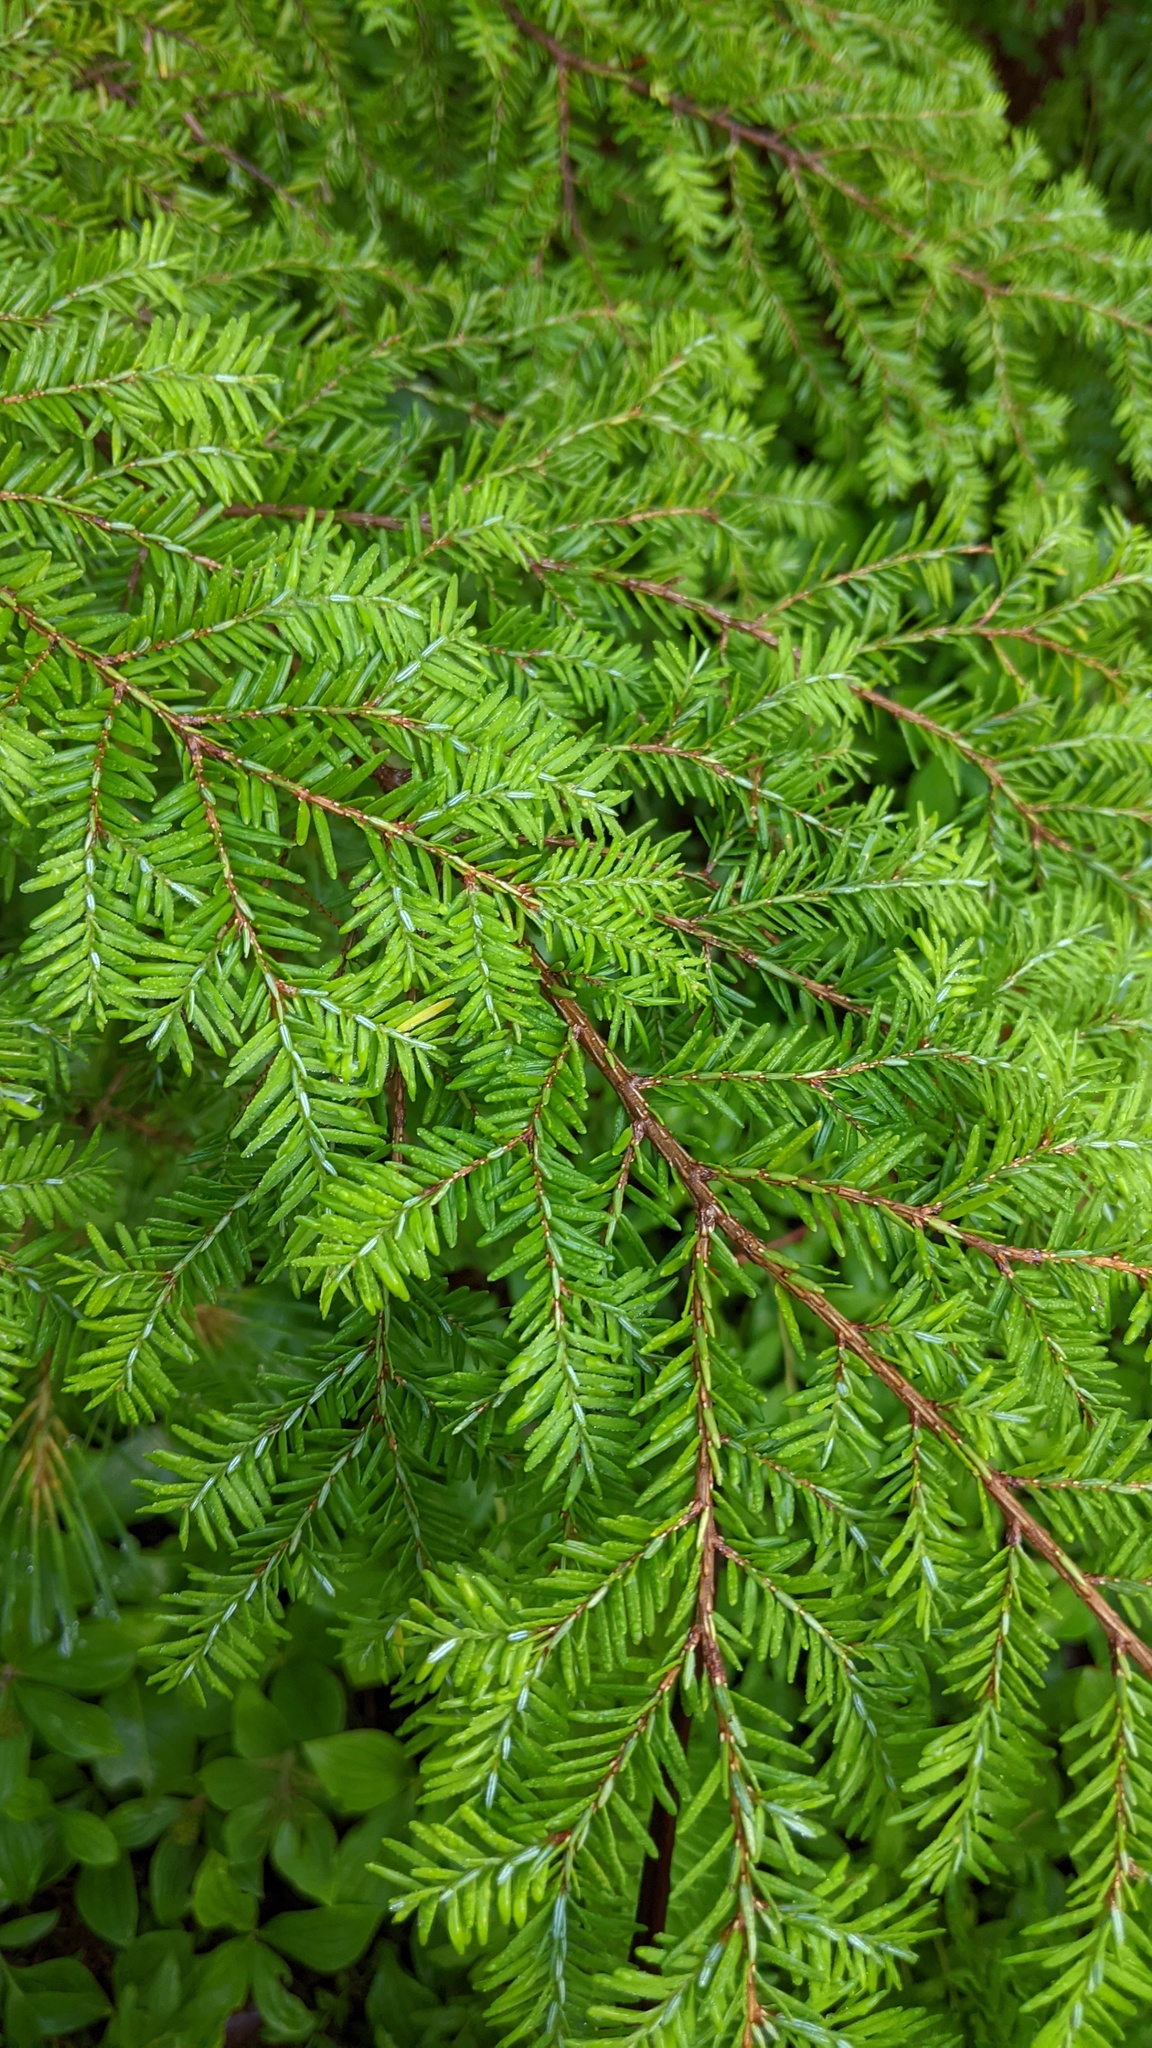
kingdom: Plantae
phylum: Tracheophyta
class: Pinopsida
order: Pinales
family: Pinaceae
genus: Tsuga
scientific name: Tsuga canadensis
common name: Eastern hemlock
